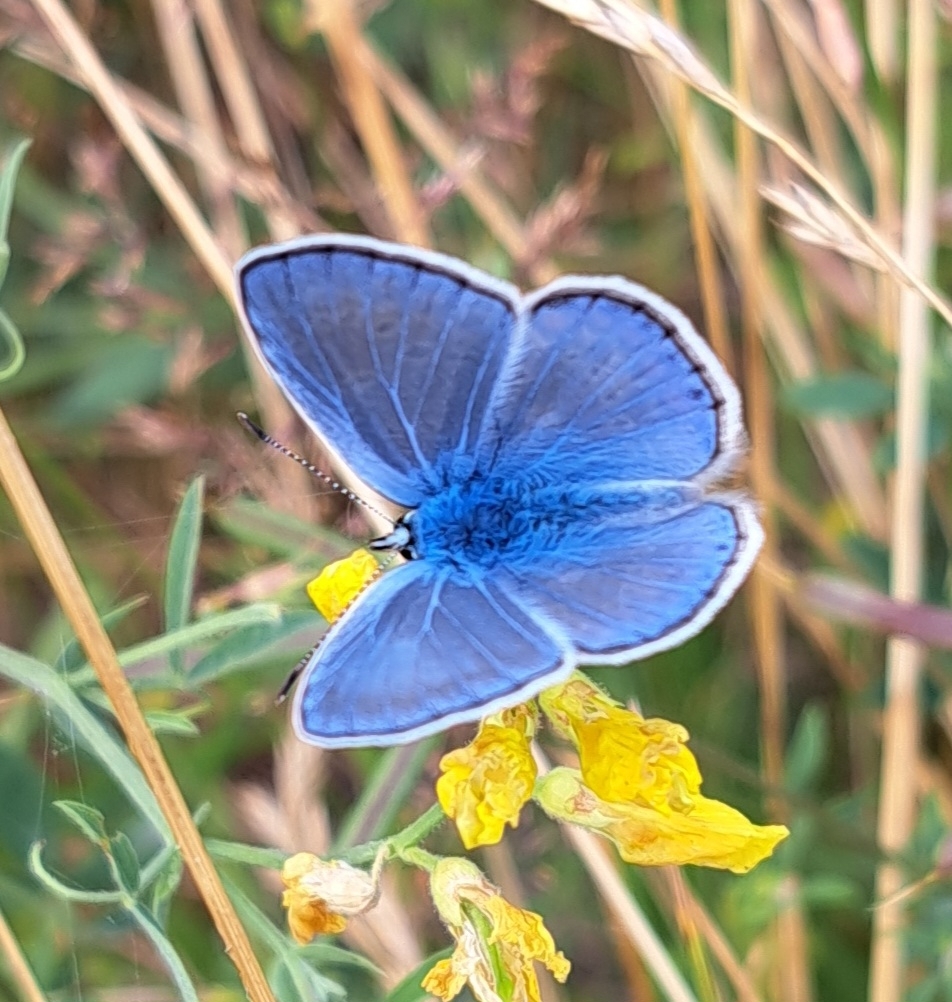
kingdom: Animalia
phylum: Arthropoda
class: Insecta
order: Lepidoptera
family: Lycaenidae
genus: Polyommatus
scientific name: Polyommatus icarus
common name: Common blue
